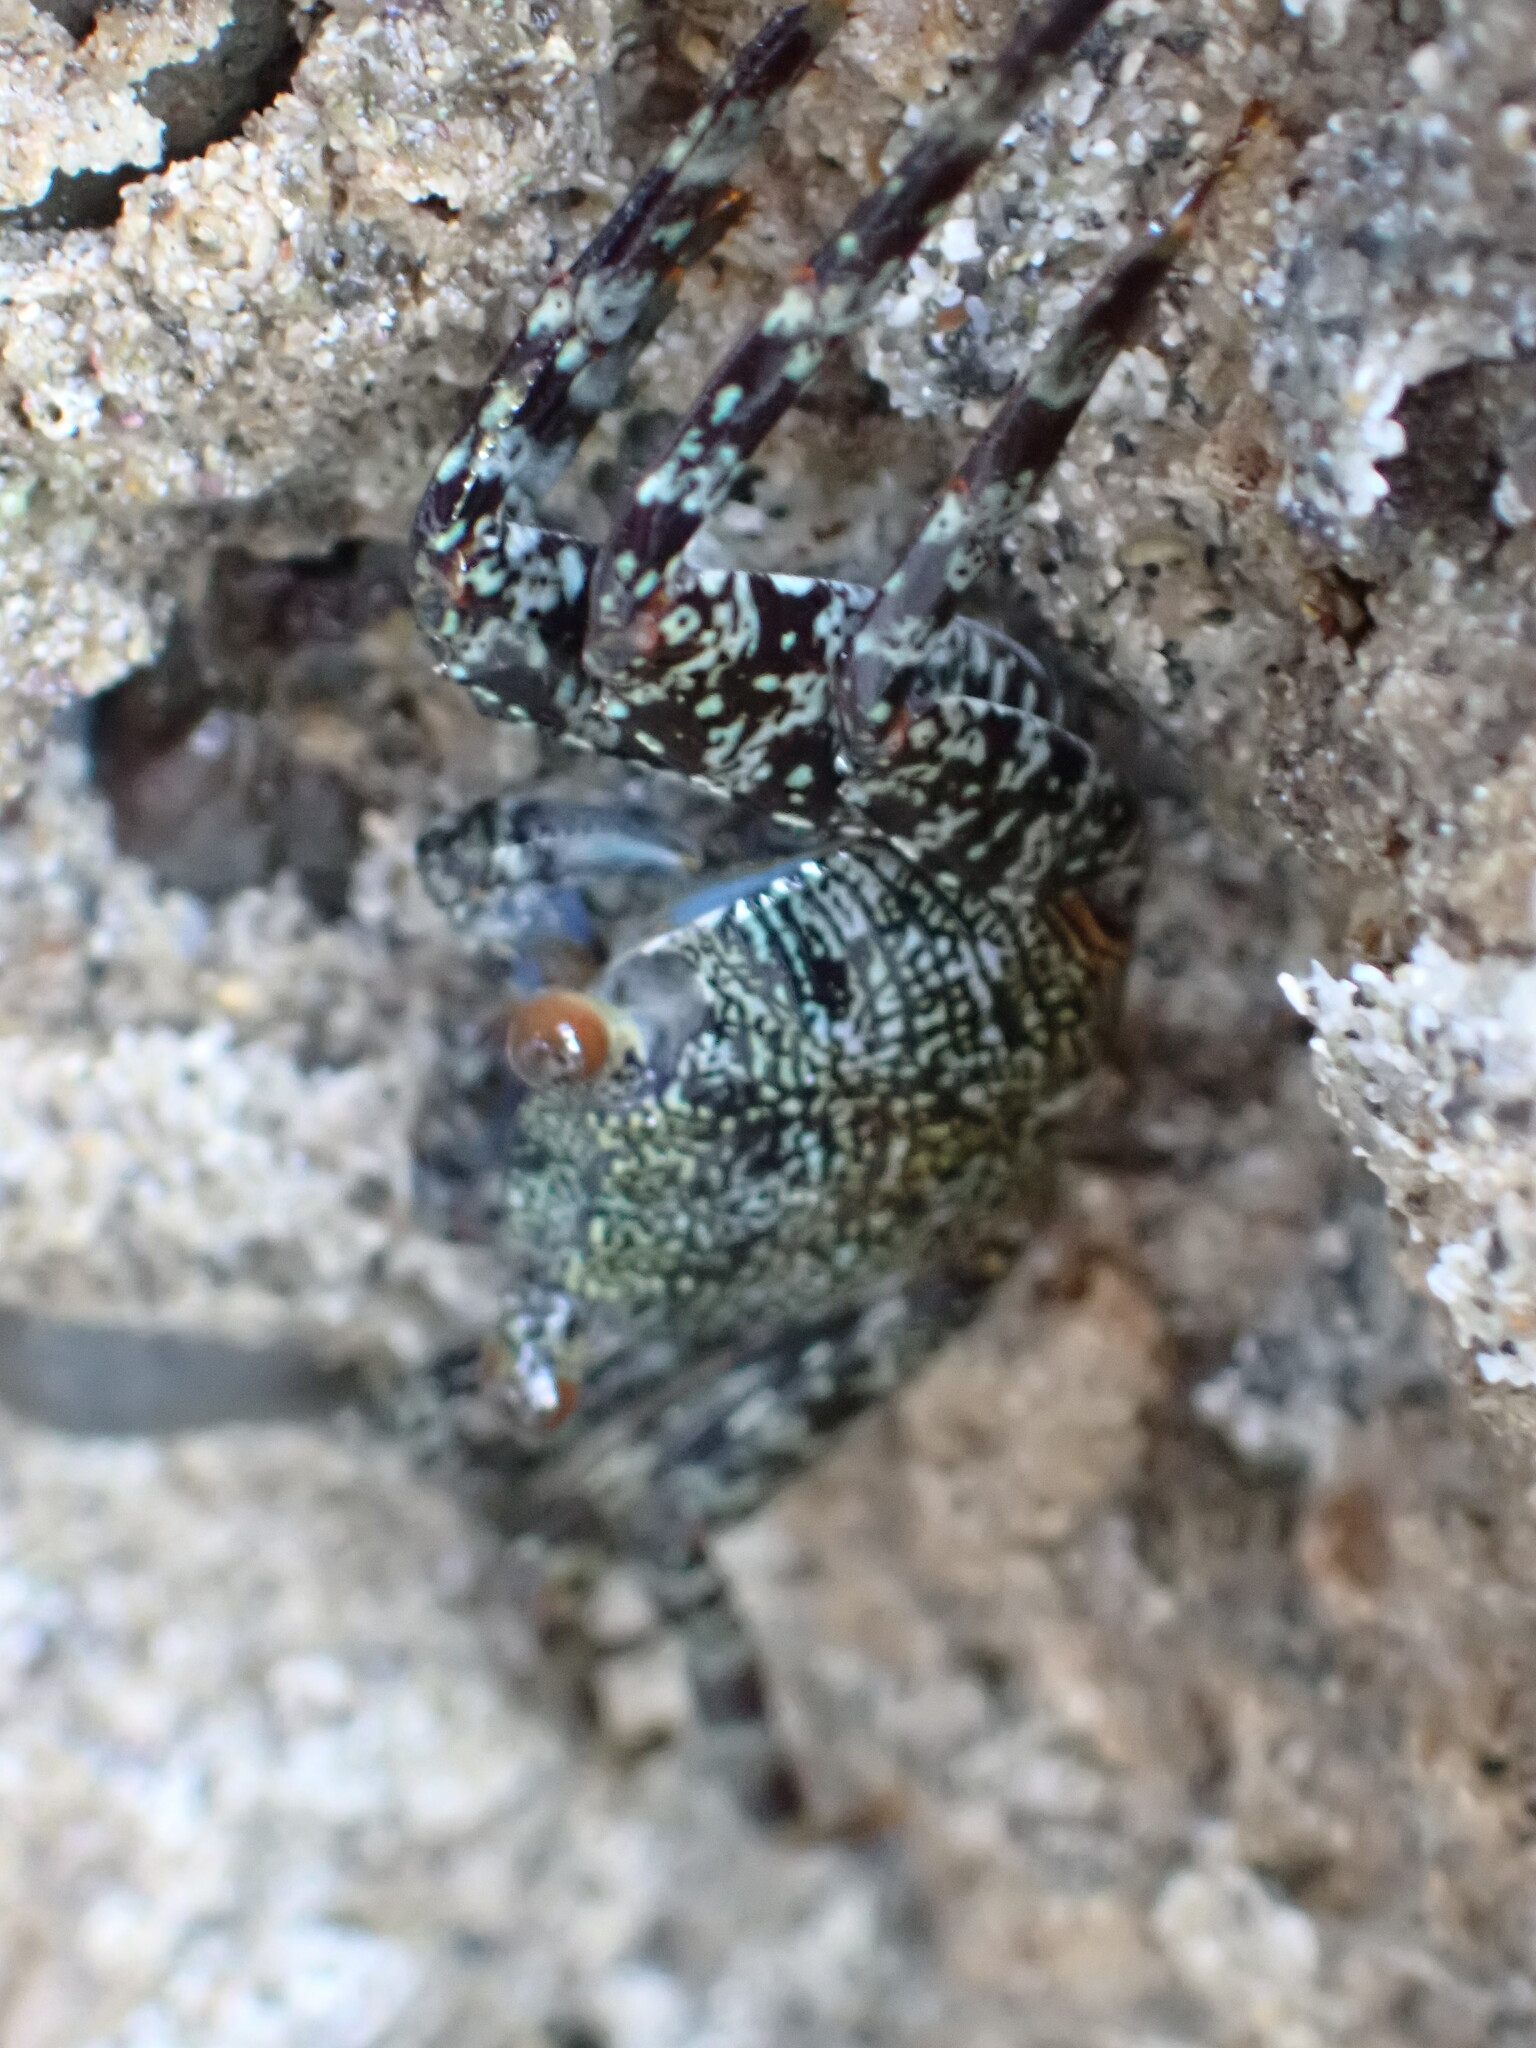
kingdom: Animalia
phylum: Arthropoda
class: Malacostraca
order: Decapoda
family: Grapsidae
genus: Grapsus
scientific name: Grapsus grapsus
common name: Sally lightfoot
